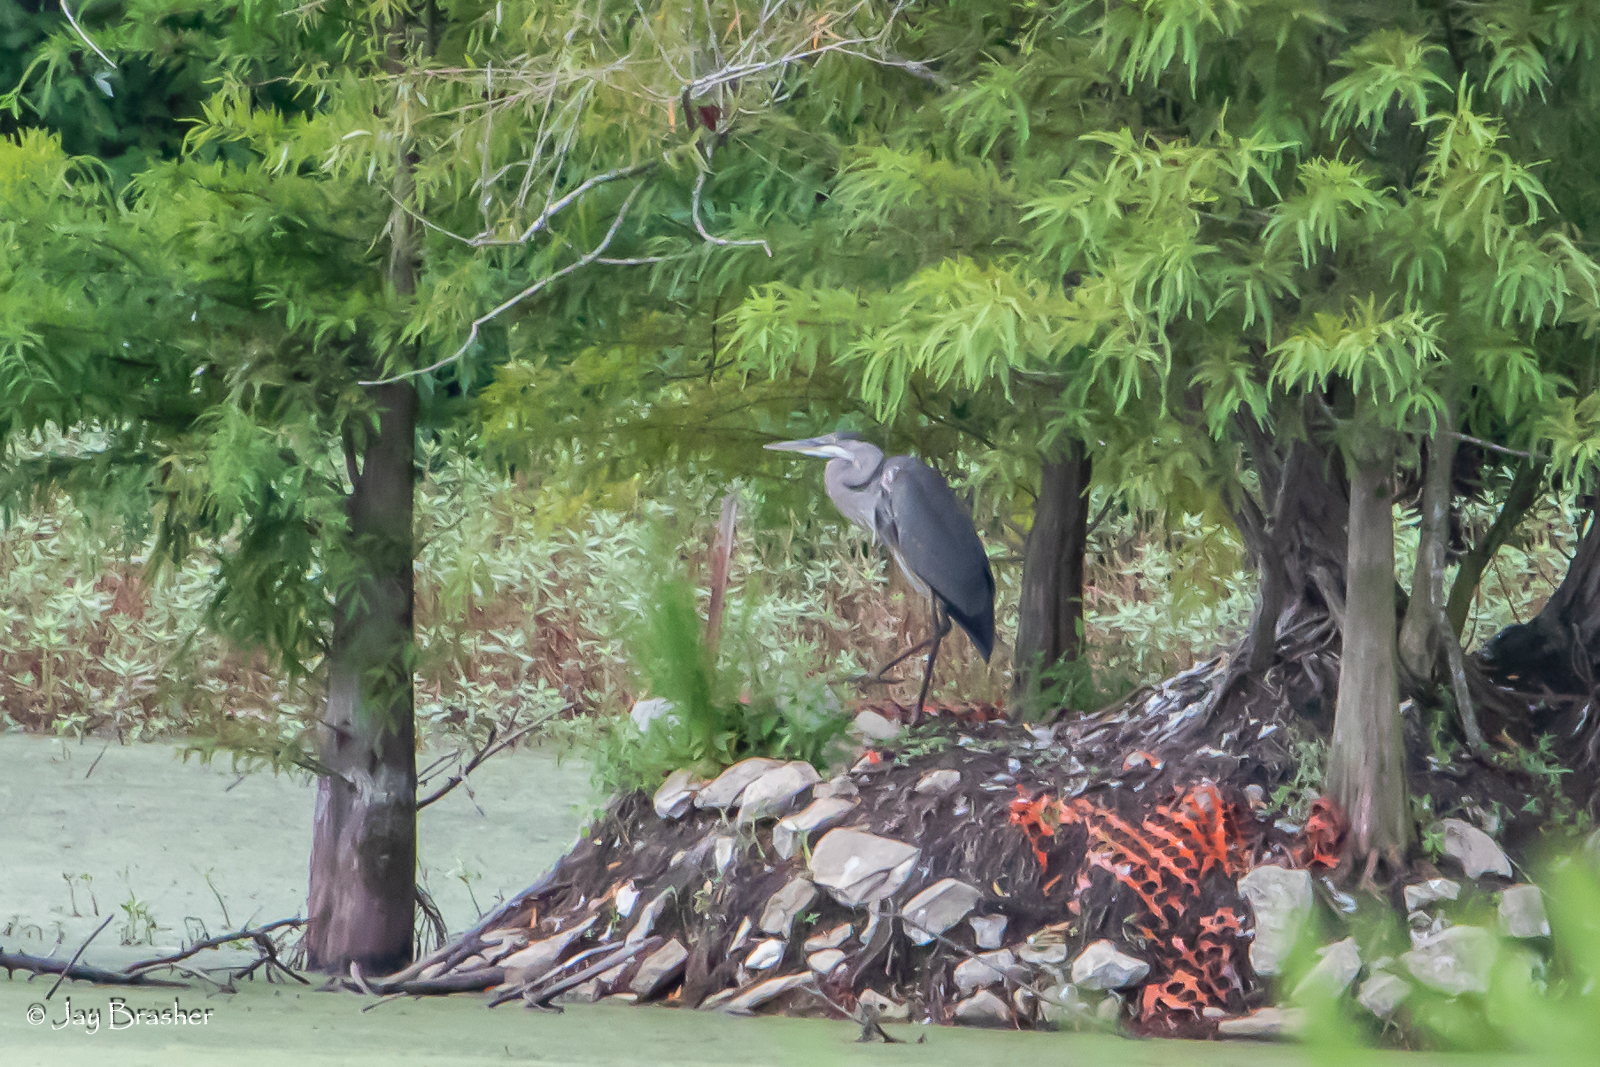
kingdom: Animalia
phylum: Chordata
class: Aves
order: Pelecaniformes
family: Ardeidae
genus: Ardea
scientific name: Ardea herodias
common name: Great blue heron
